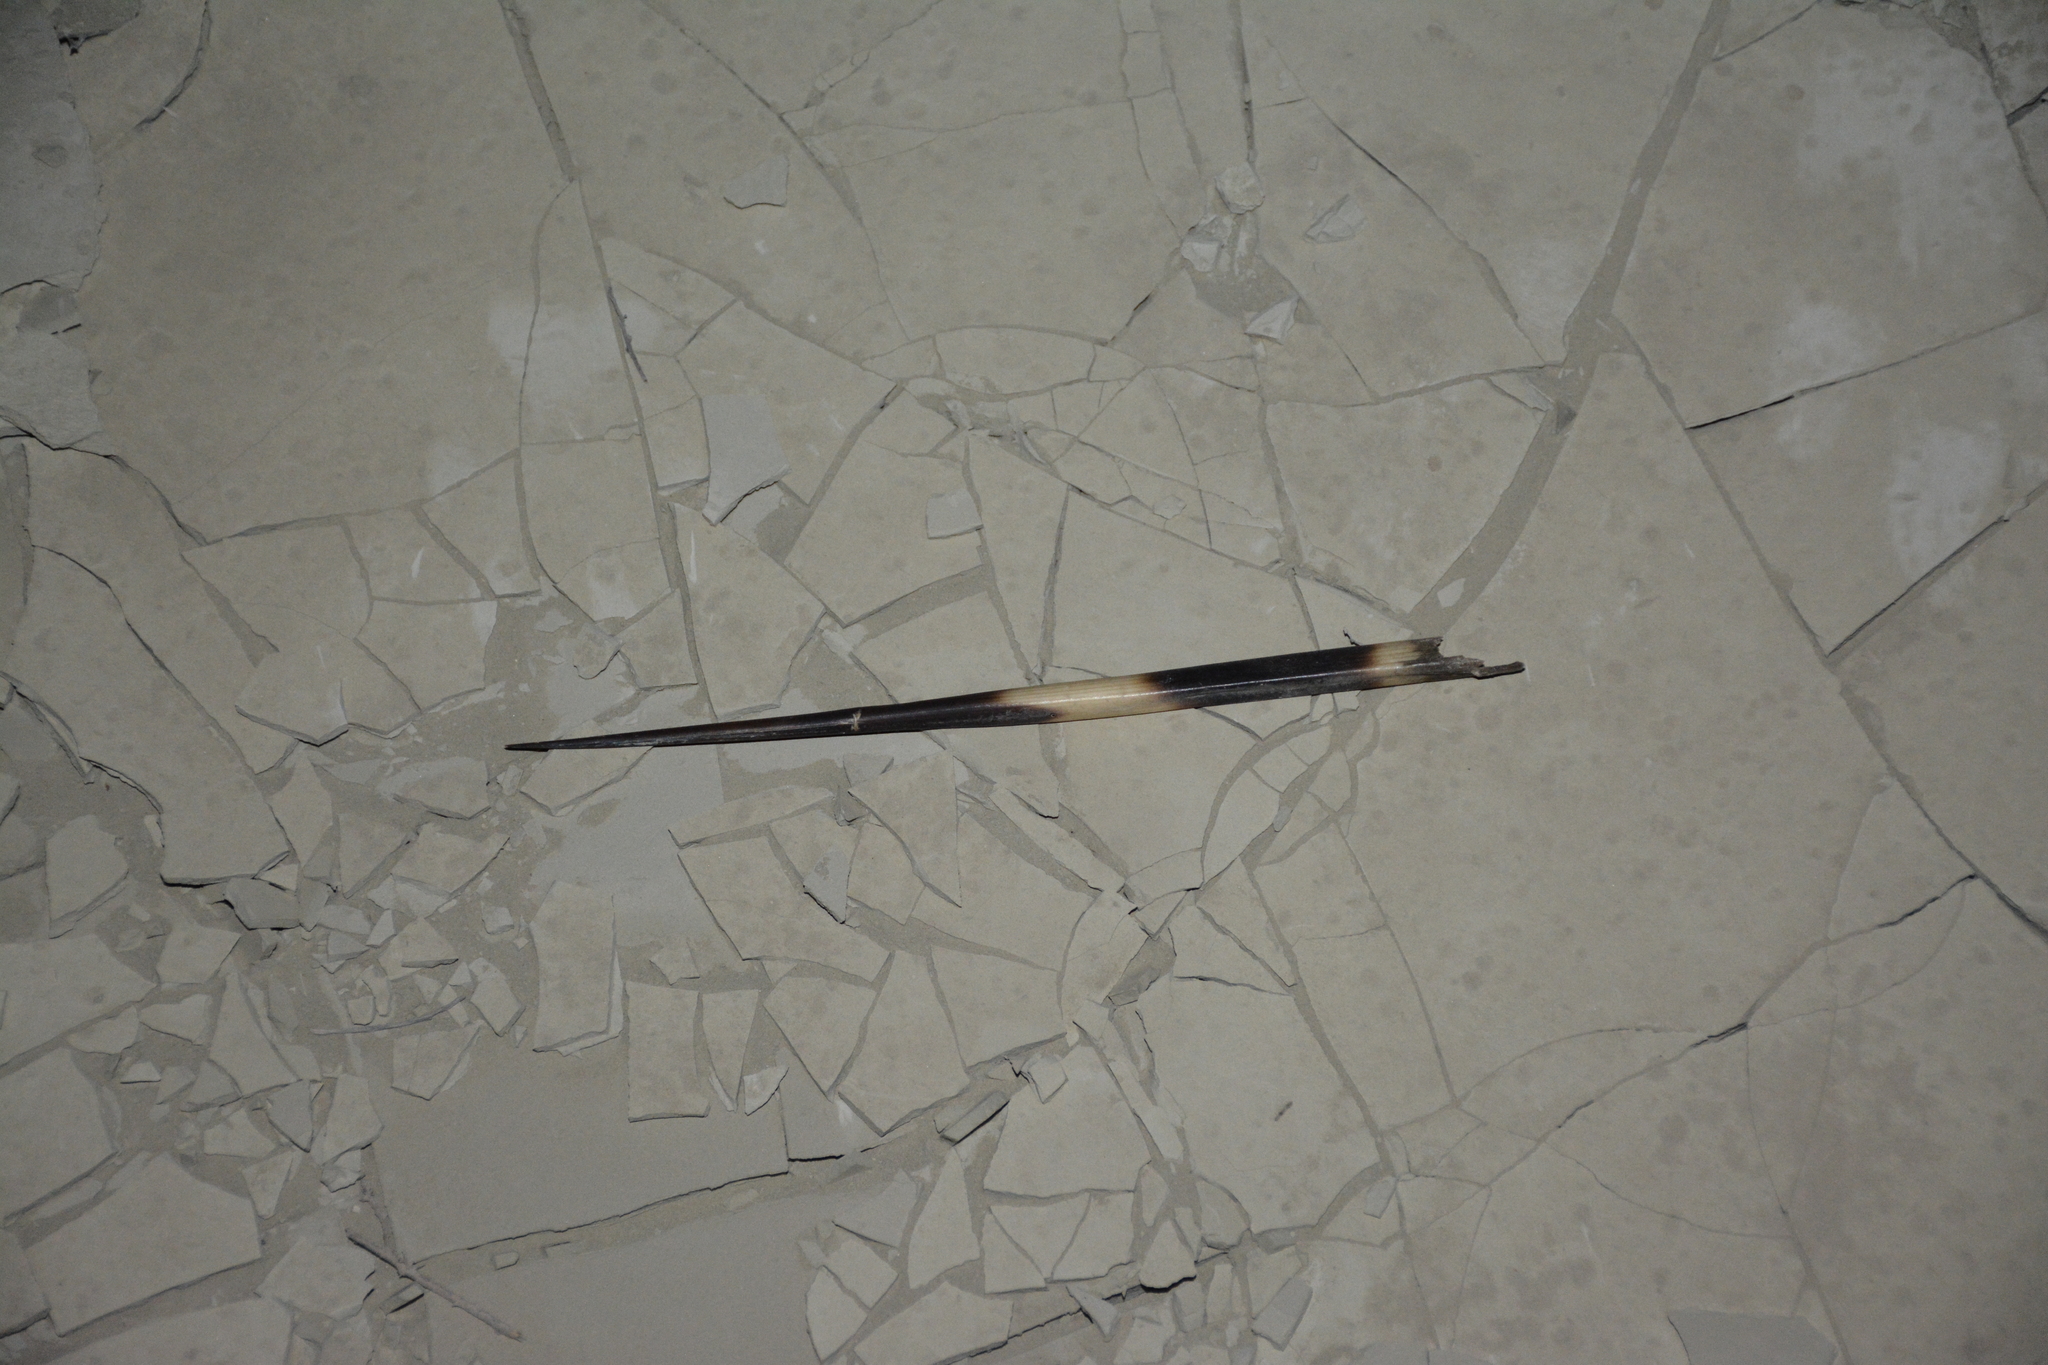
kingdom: Animalia
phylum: Chordata
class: Mammalia
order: Rodentia
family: Hystricidae
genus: Hystrix
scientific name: Hystrix indica
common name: Indian crested porcupine
